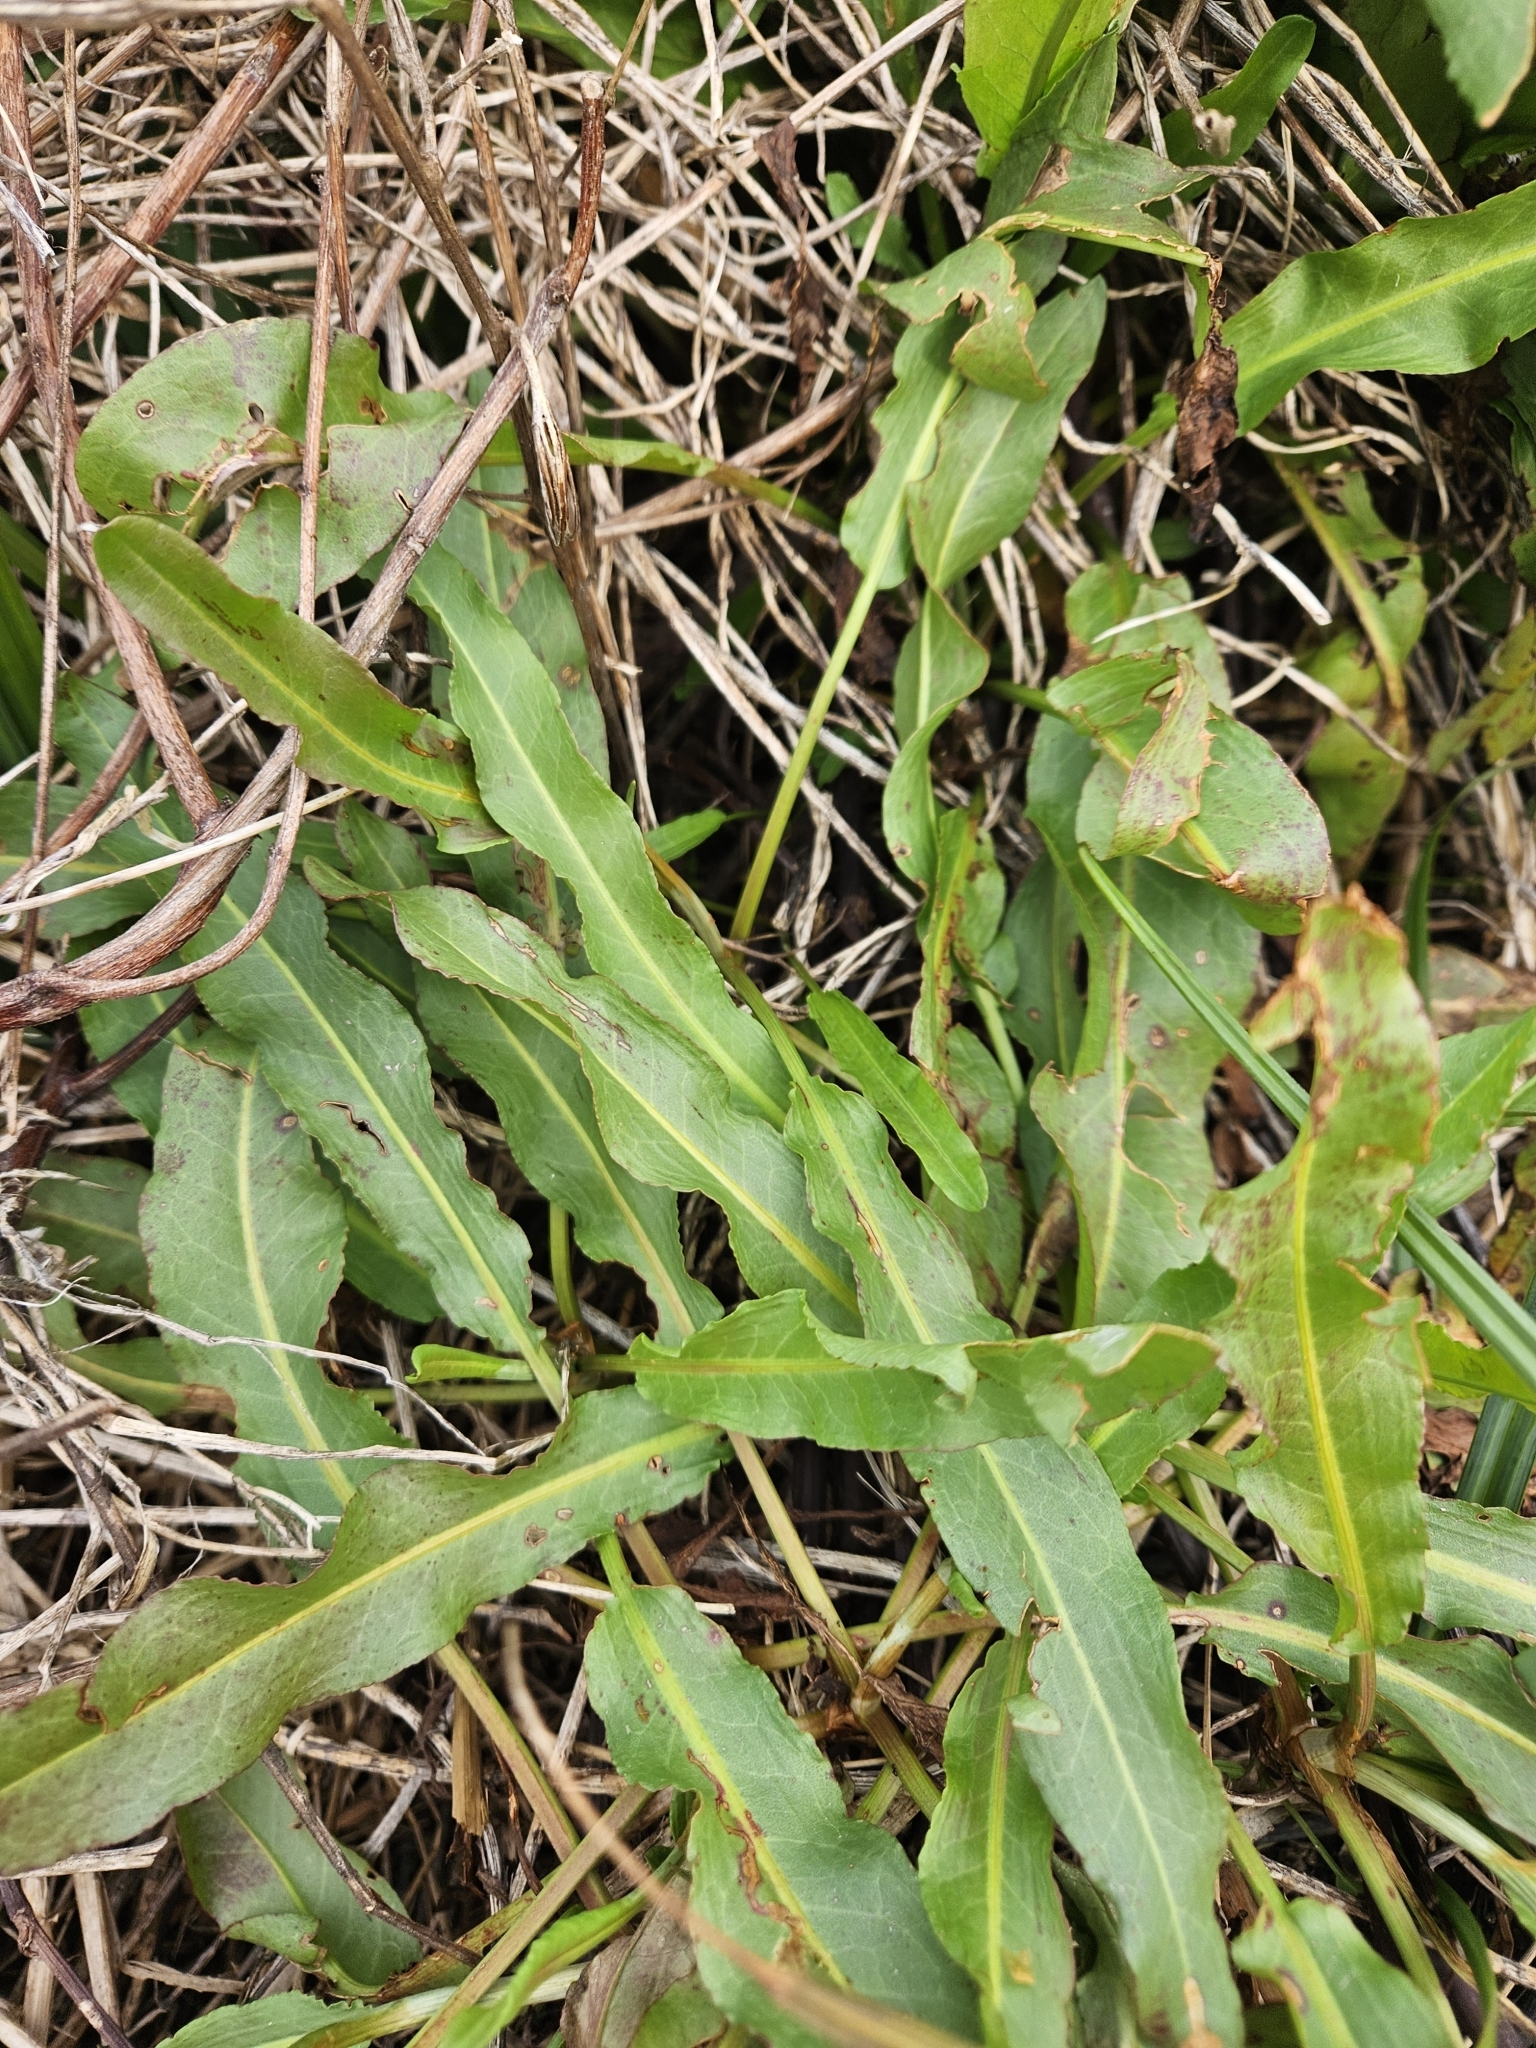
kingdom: Plantae
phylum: Tracheophyta
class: Magnoliopsida
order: Caryophyllales
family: Polygonaceae
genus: Rumex
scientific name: Rumex crispus
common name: Curled dock
